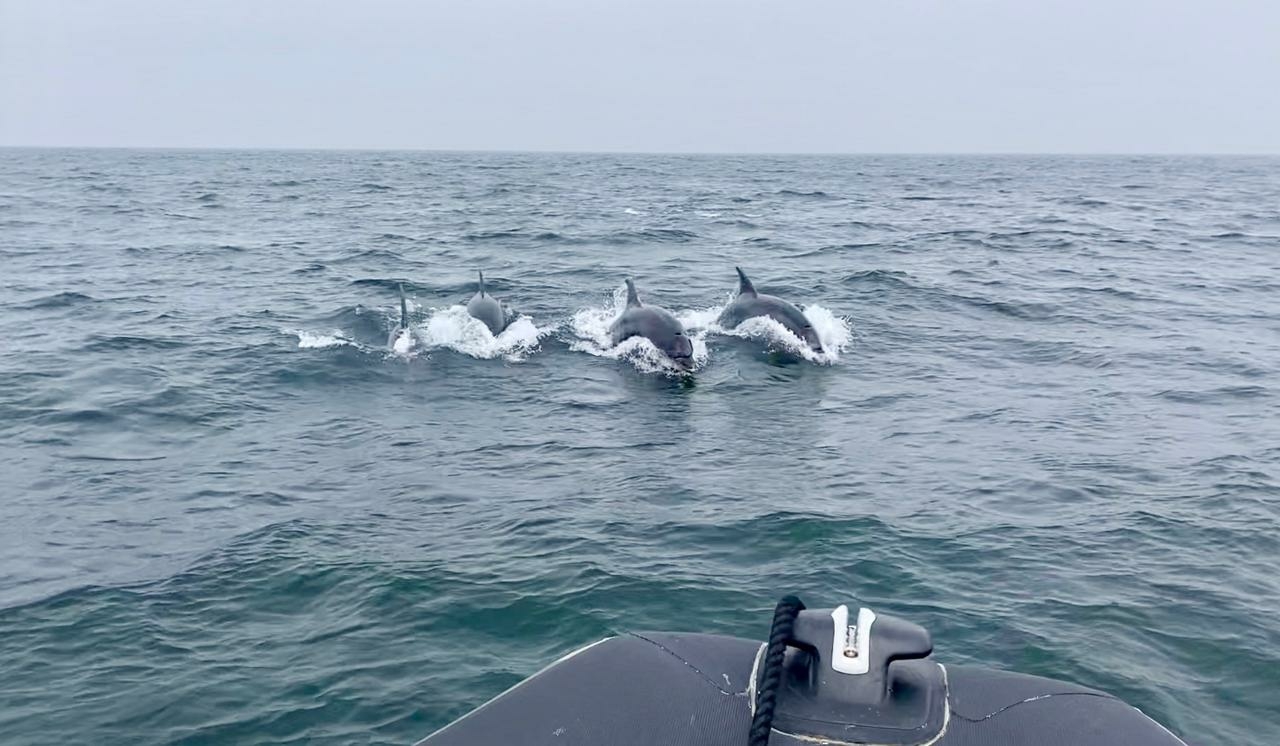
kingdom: Animalia
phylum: Chordata
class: Mammalia
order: Cetacea
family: Delphinidae
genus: Tursiops
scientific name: Tursiops truncatus
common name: Bottlenose dolphin
